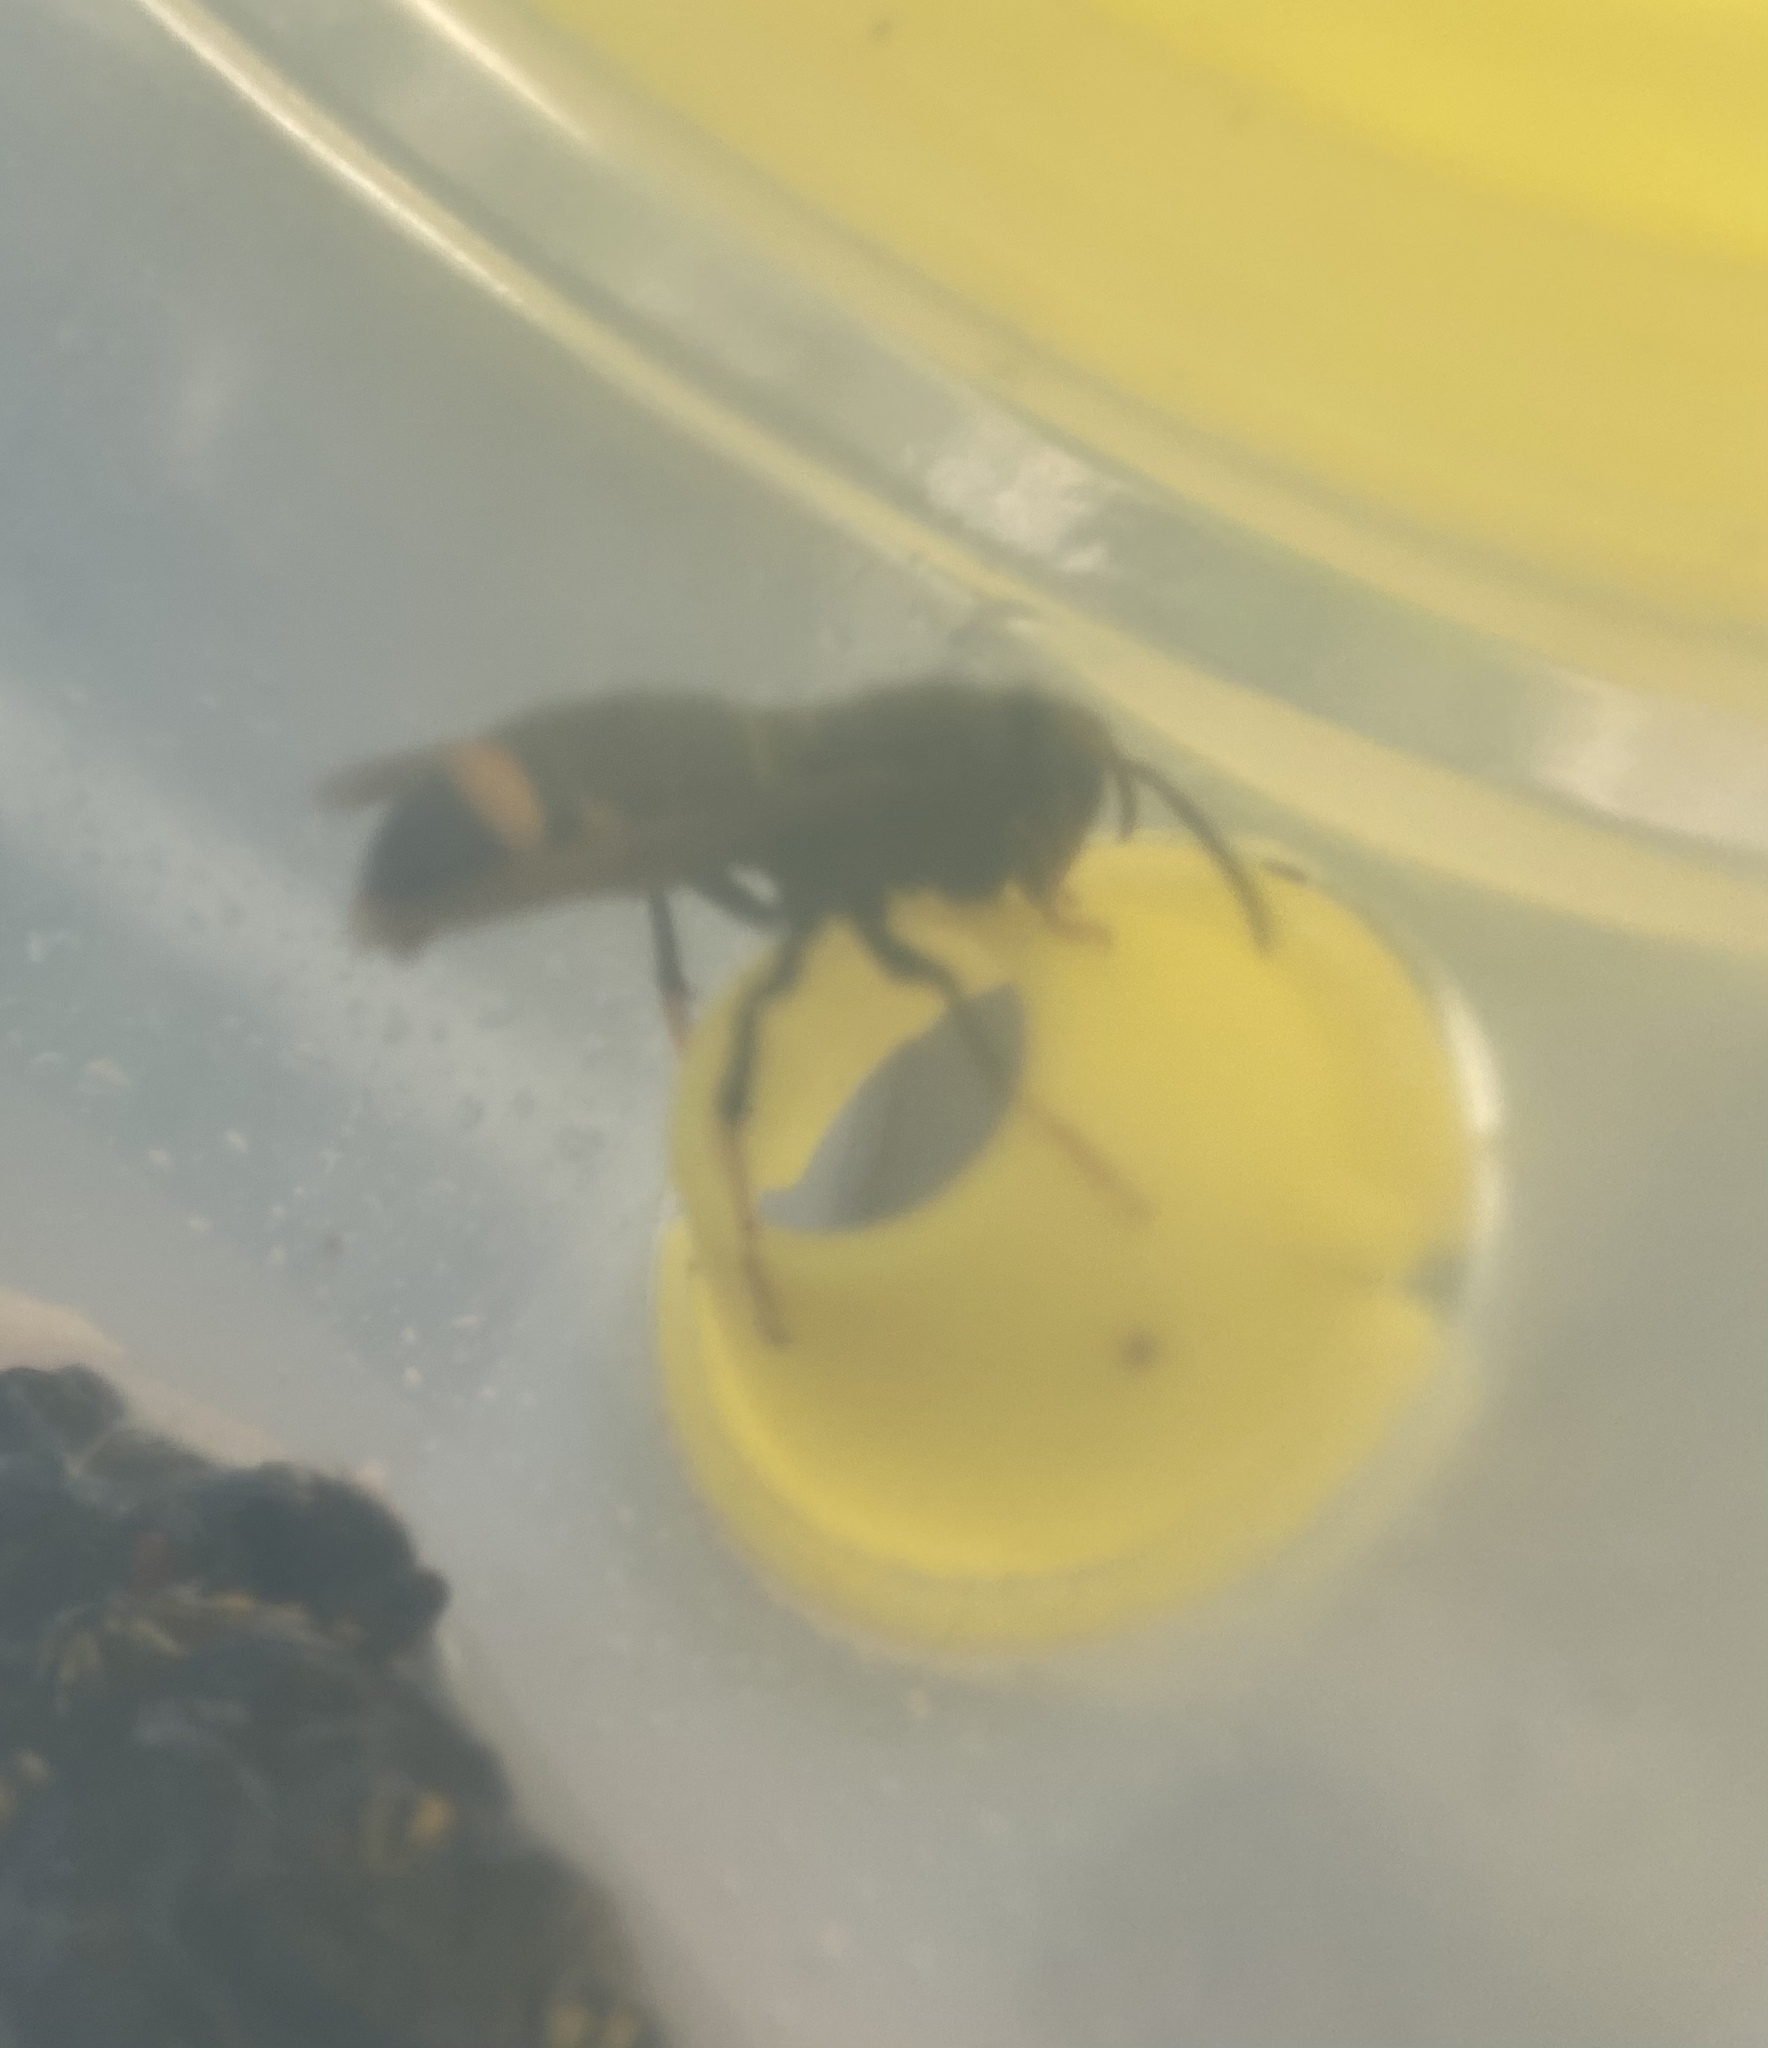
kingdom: Animalia
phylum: Arthropoda
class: Insecta
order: Hymenoptera
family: Vespidae
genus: Vespa
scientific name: Vespa velutina
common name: Asian hornet
